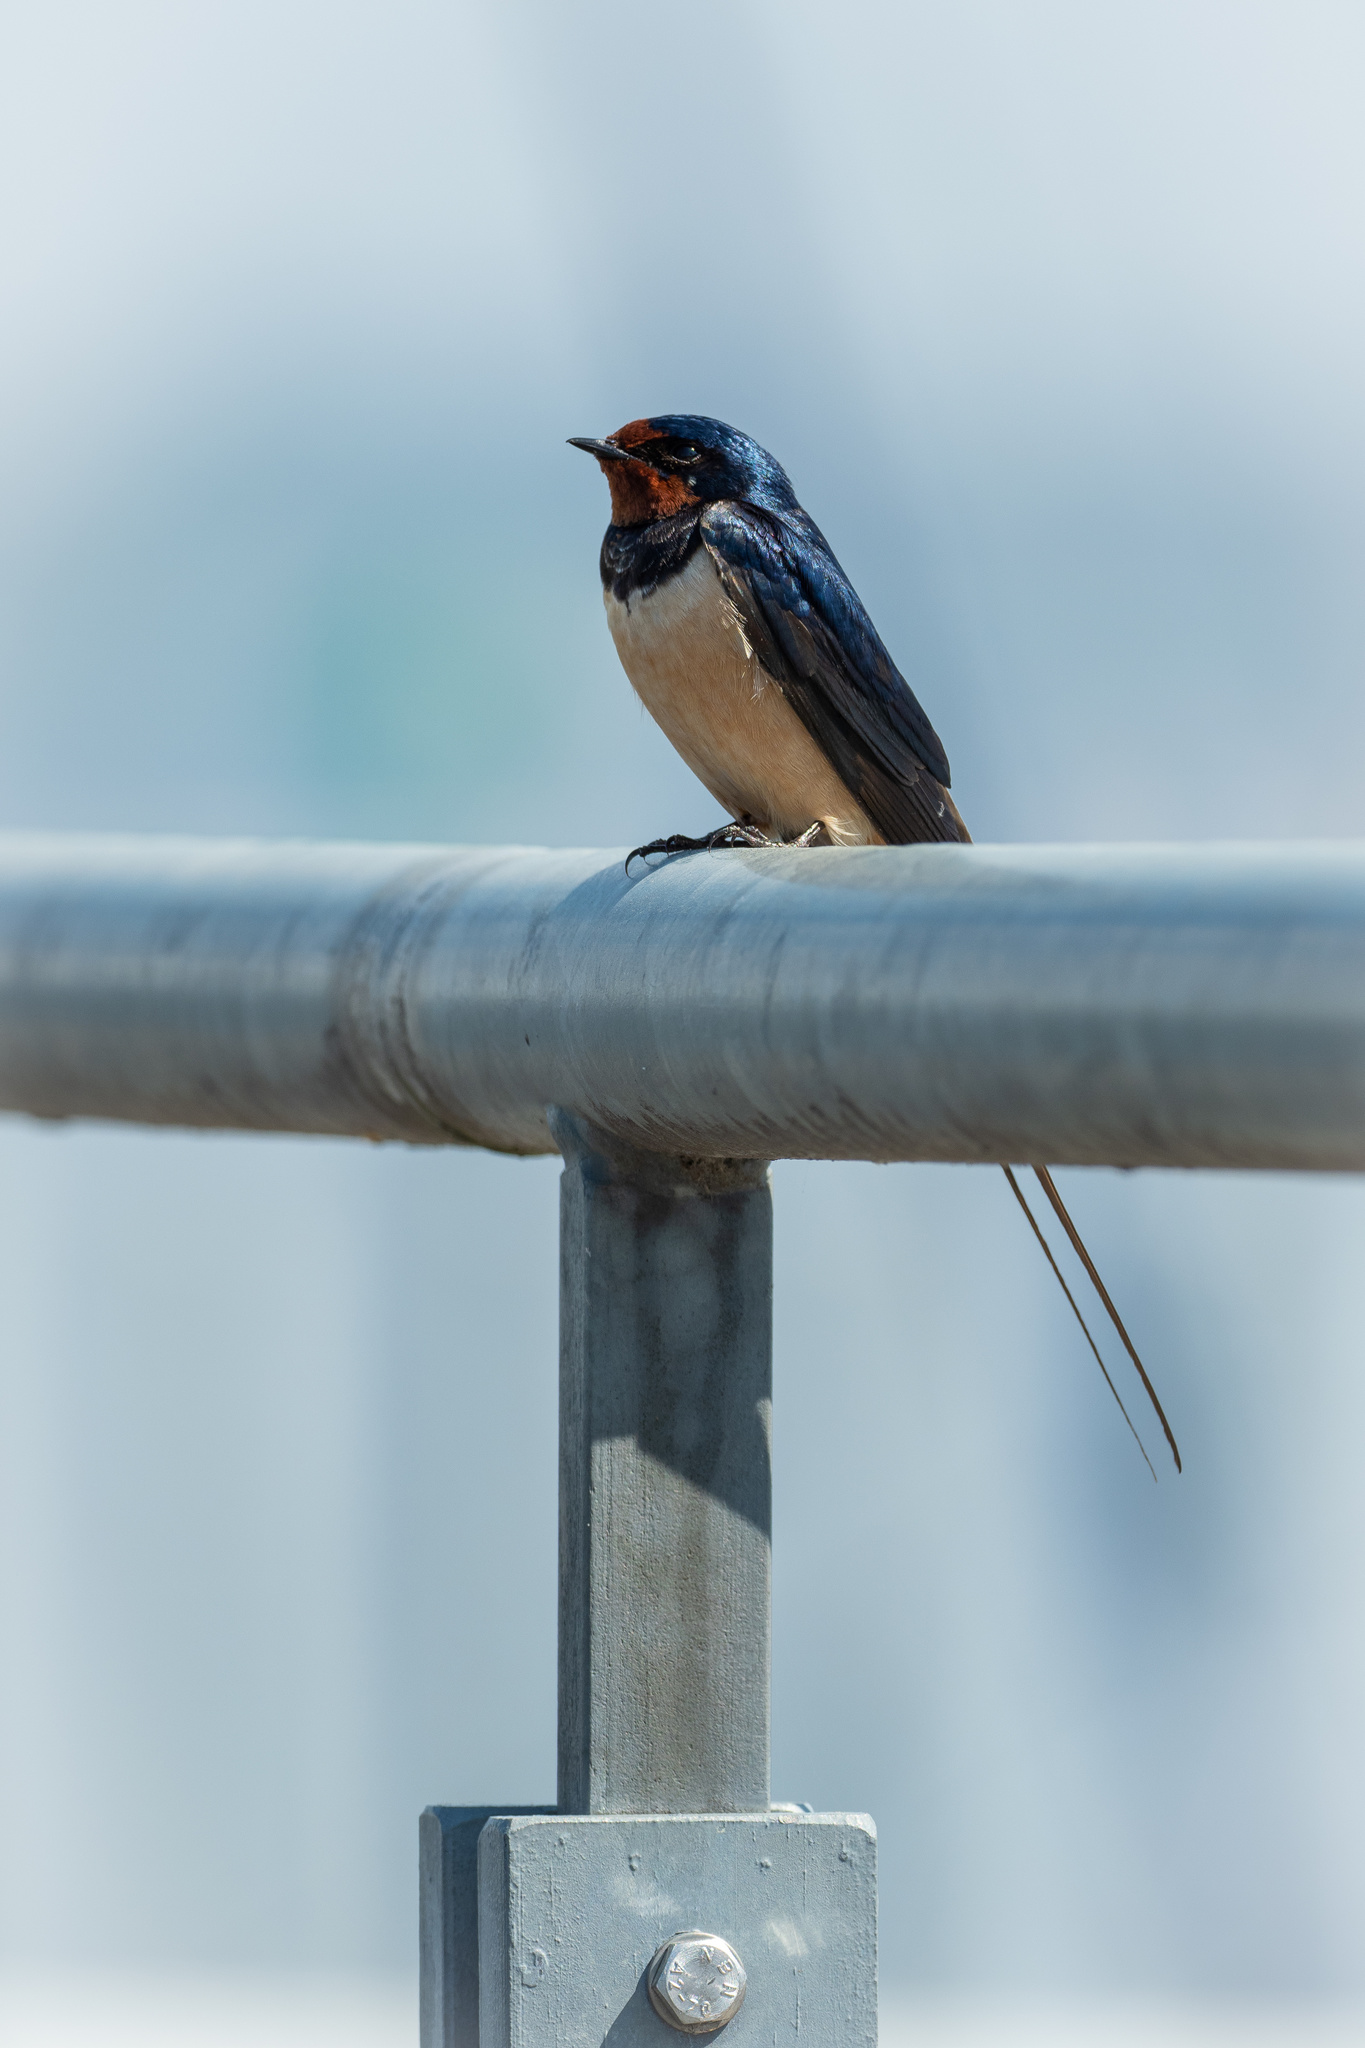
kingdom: Animalia
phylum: Chordata
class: Aves
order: Passeriformes
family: Hirundinidae
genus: Hirundo
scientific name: Hirundo rustica
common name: Barn swallow
